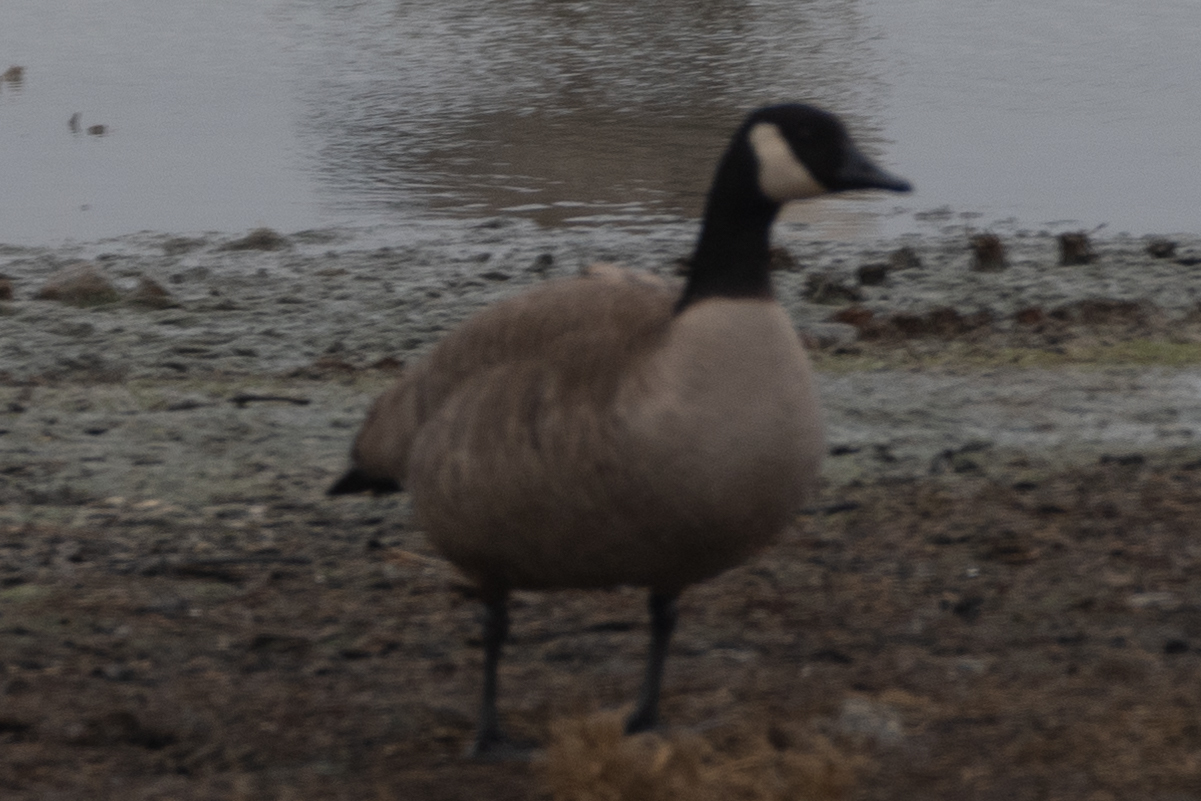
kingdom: Animalia
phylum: Chordata
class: Aves
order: Anseriformes
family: Anatidae
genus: Branta
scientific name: Branta canadensis
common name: Canada goose
